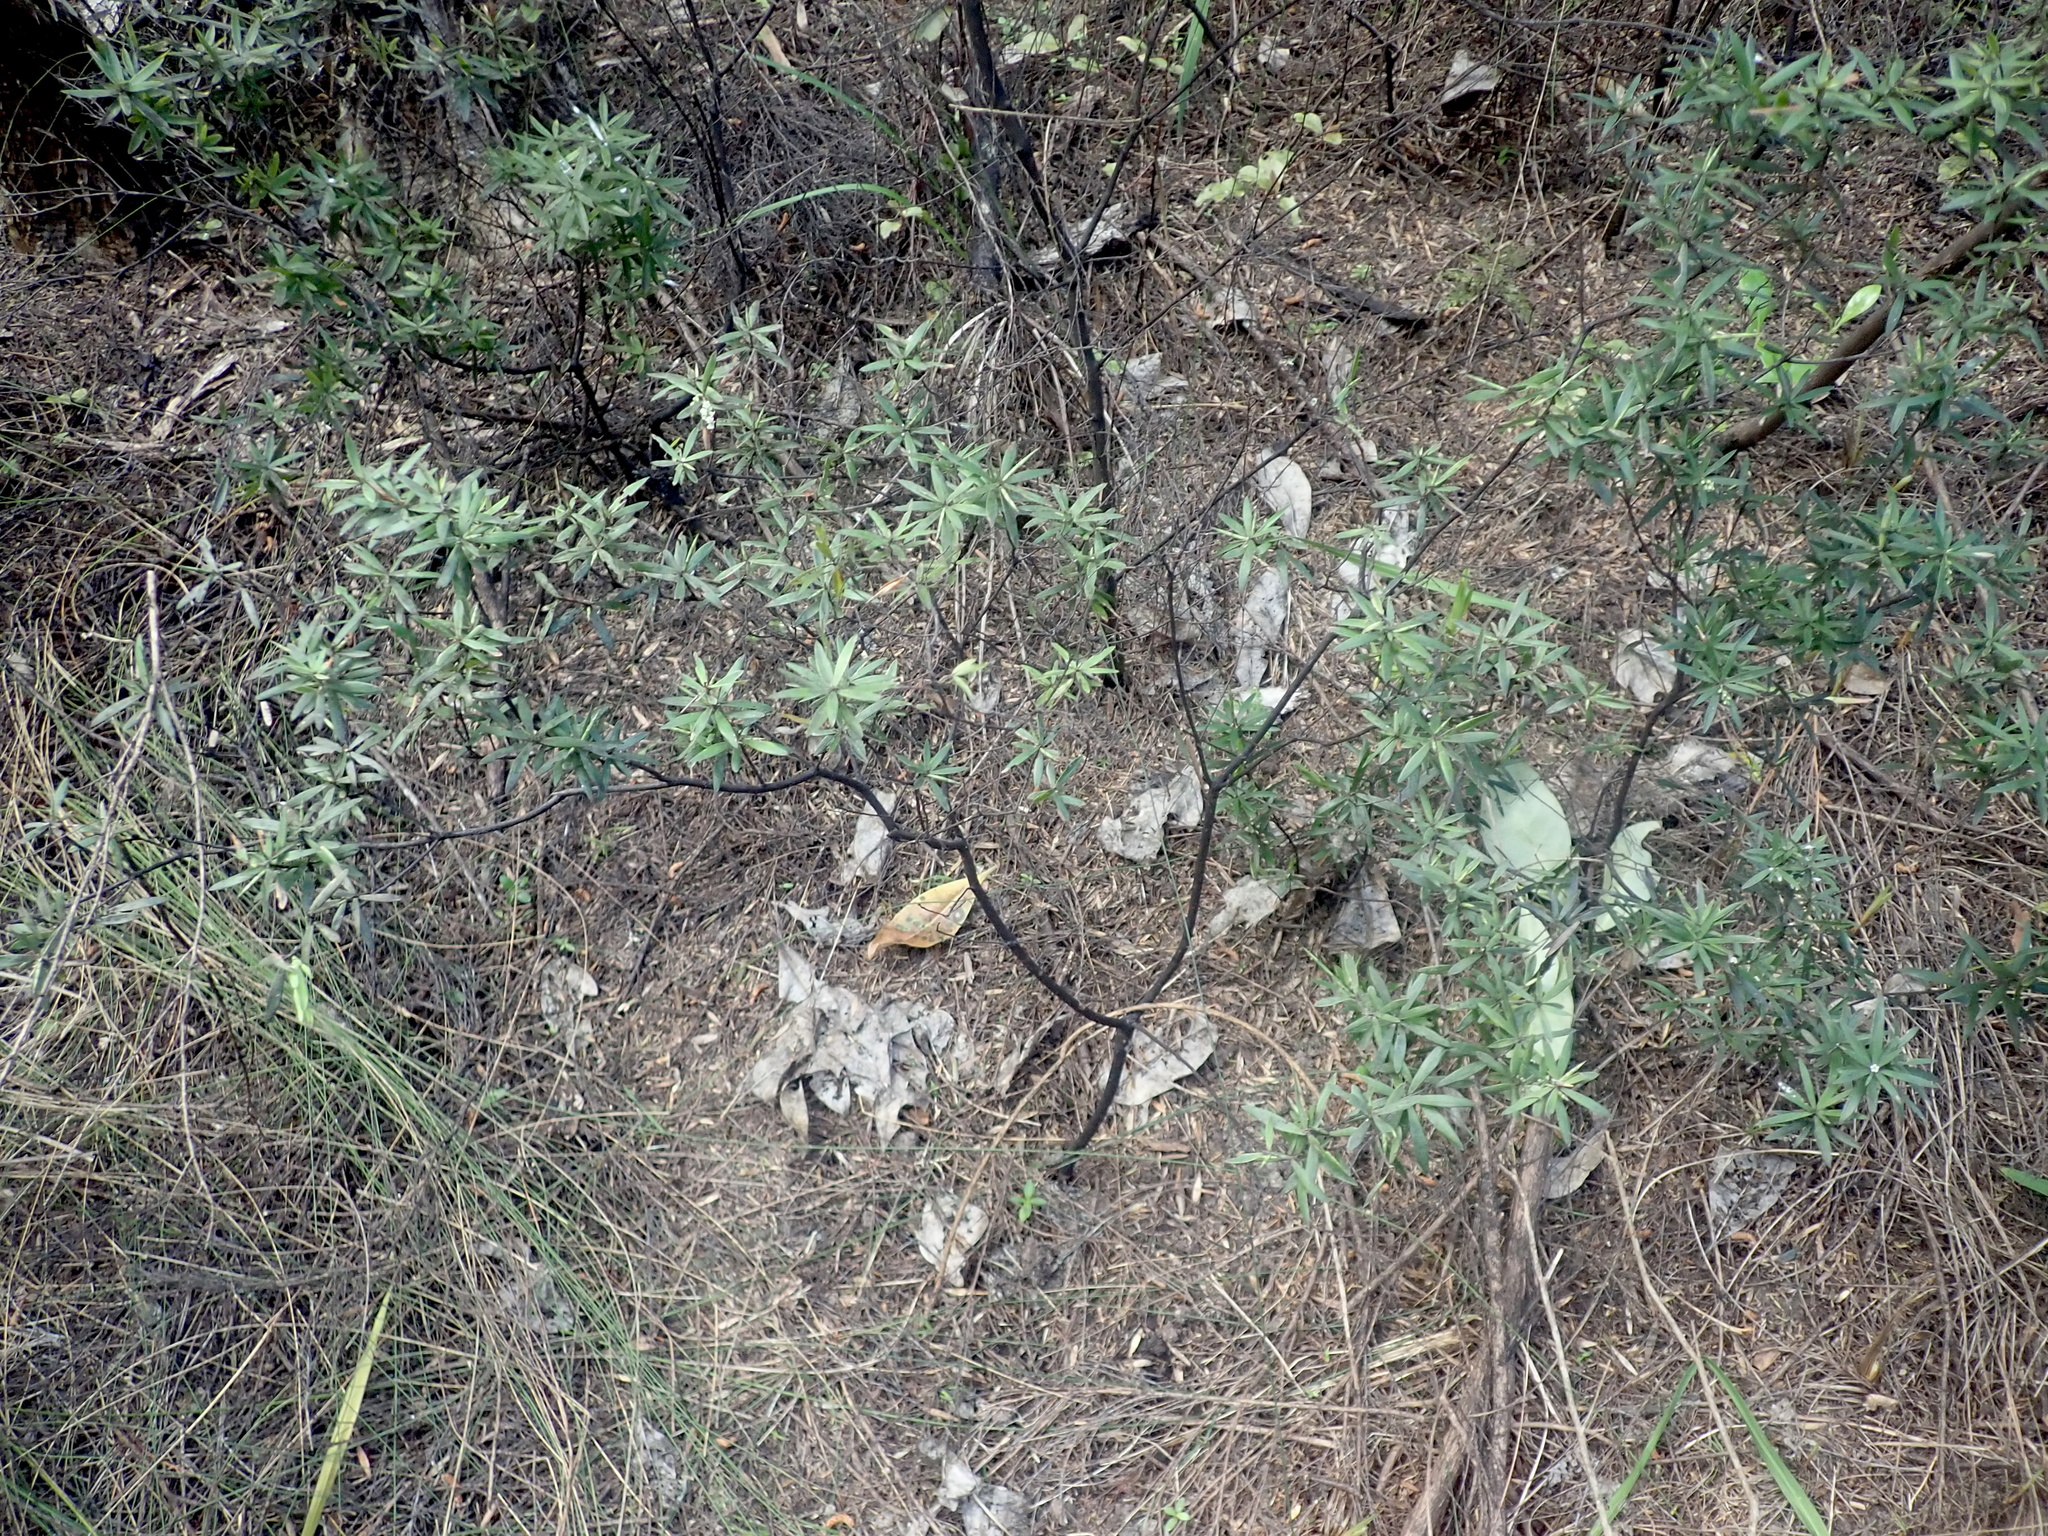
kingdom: Plantae
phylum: Tracheophyta
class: Magnoliopsida
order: Ericales
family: Ericaceae
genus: Leucopogon
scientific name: Leucopogon fasciculatus
